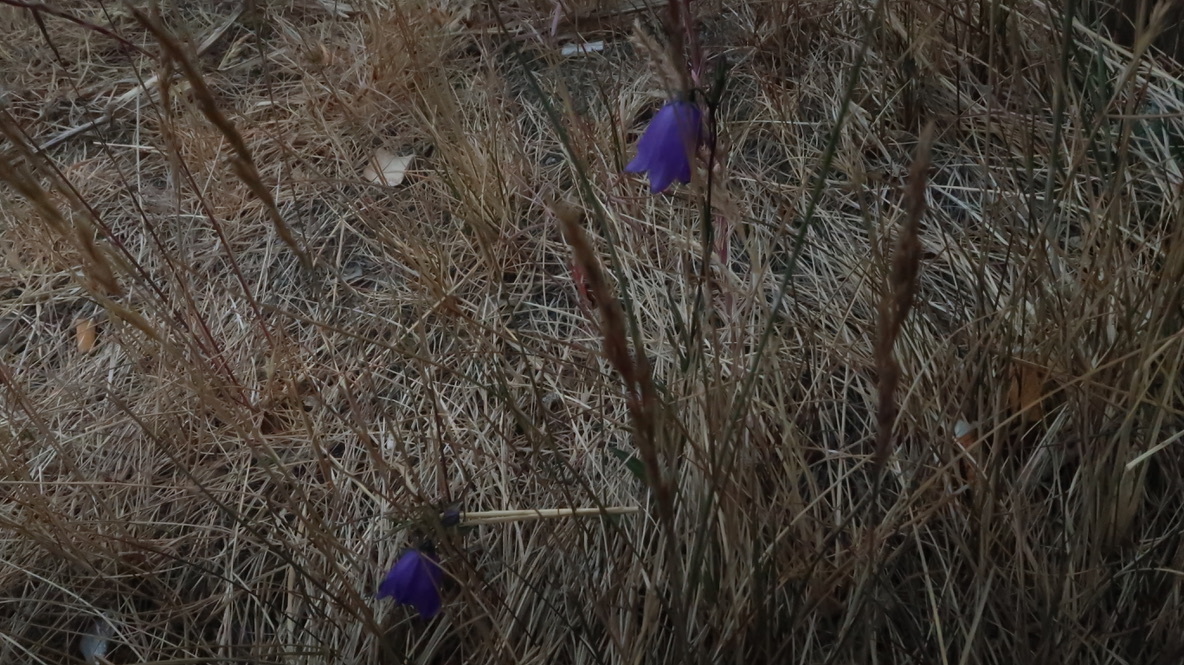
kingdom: Plantae
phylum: Tracheophyta
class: Magnoliopsida
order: Asterales
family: Campanulaceae
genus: Campanula
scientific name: Campanula alaskana
